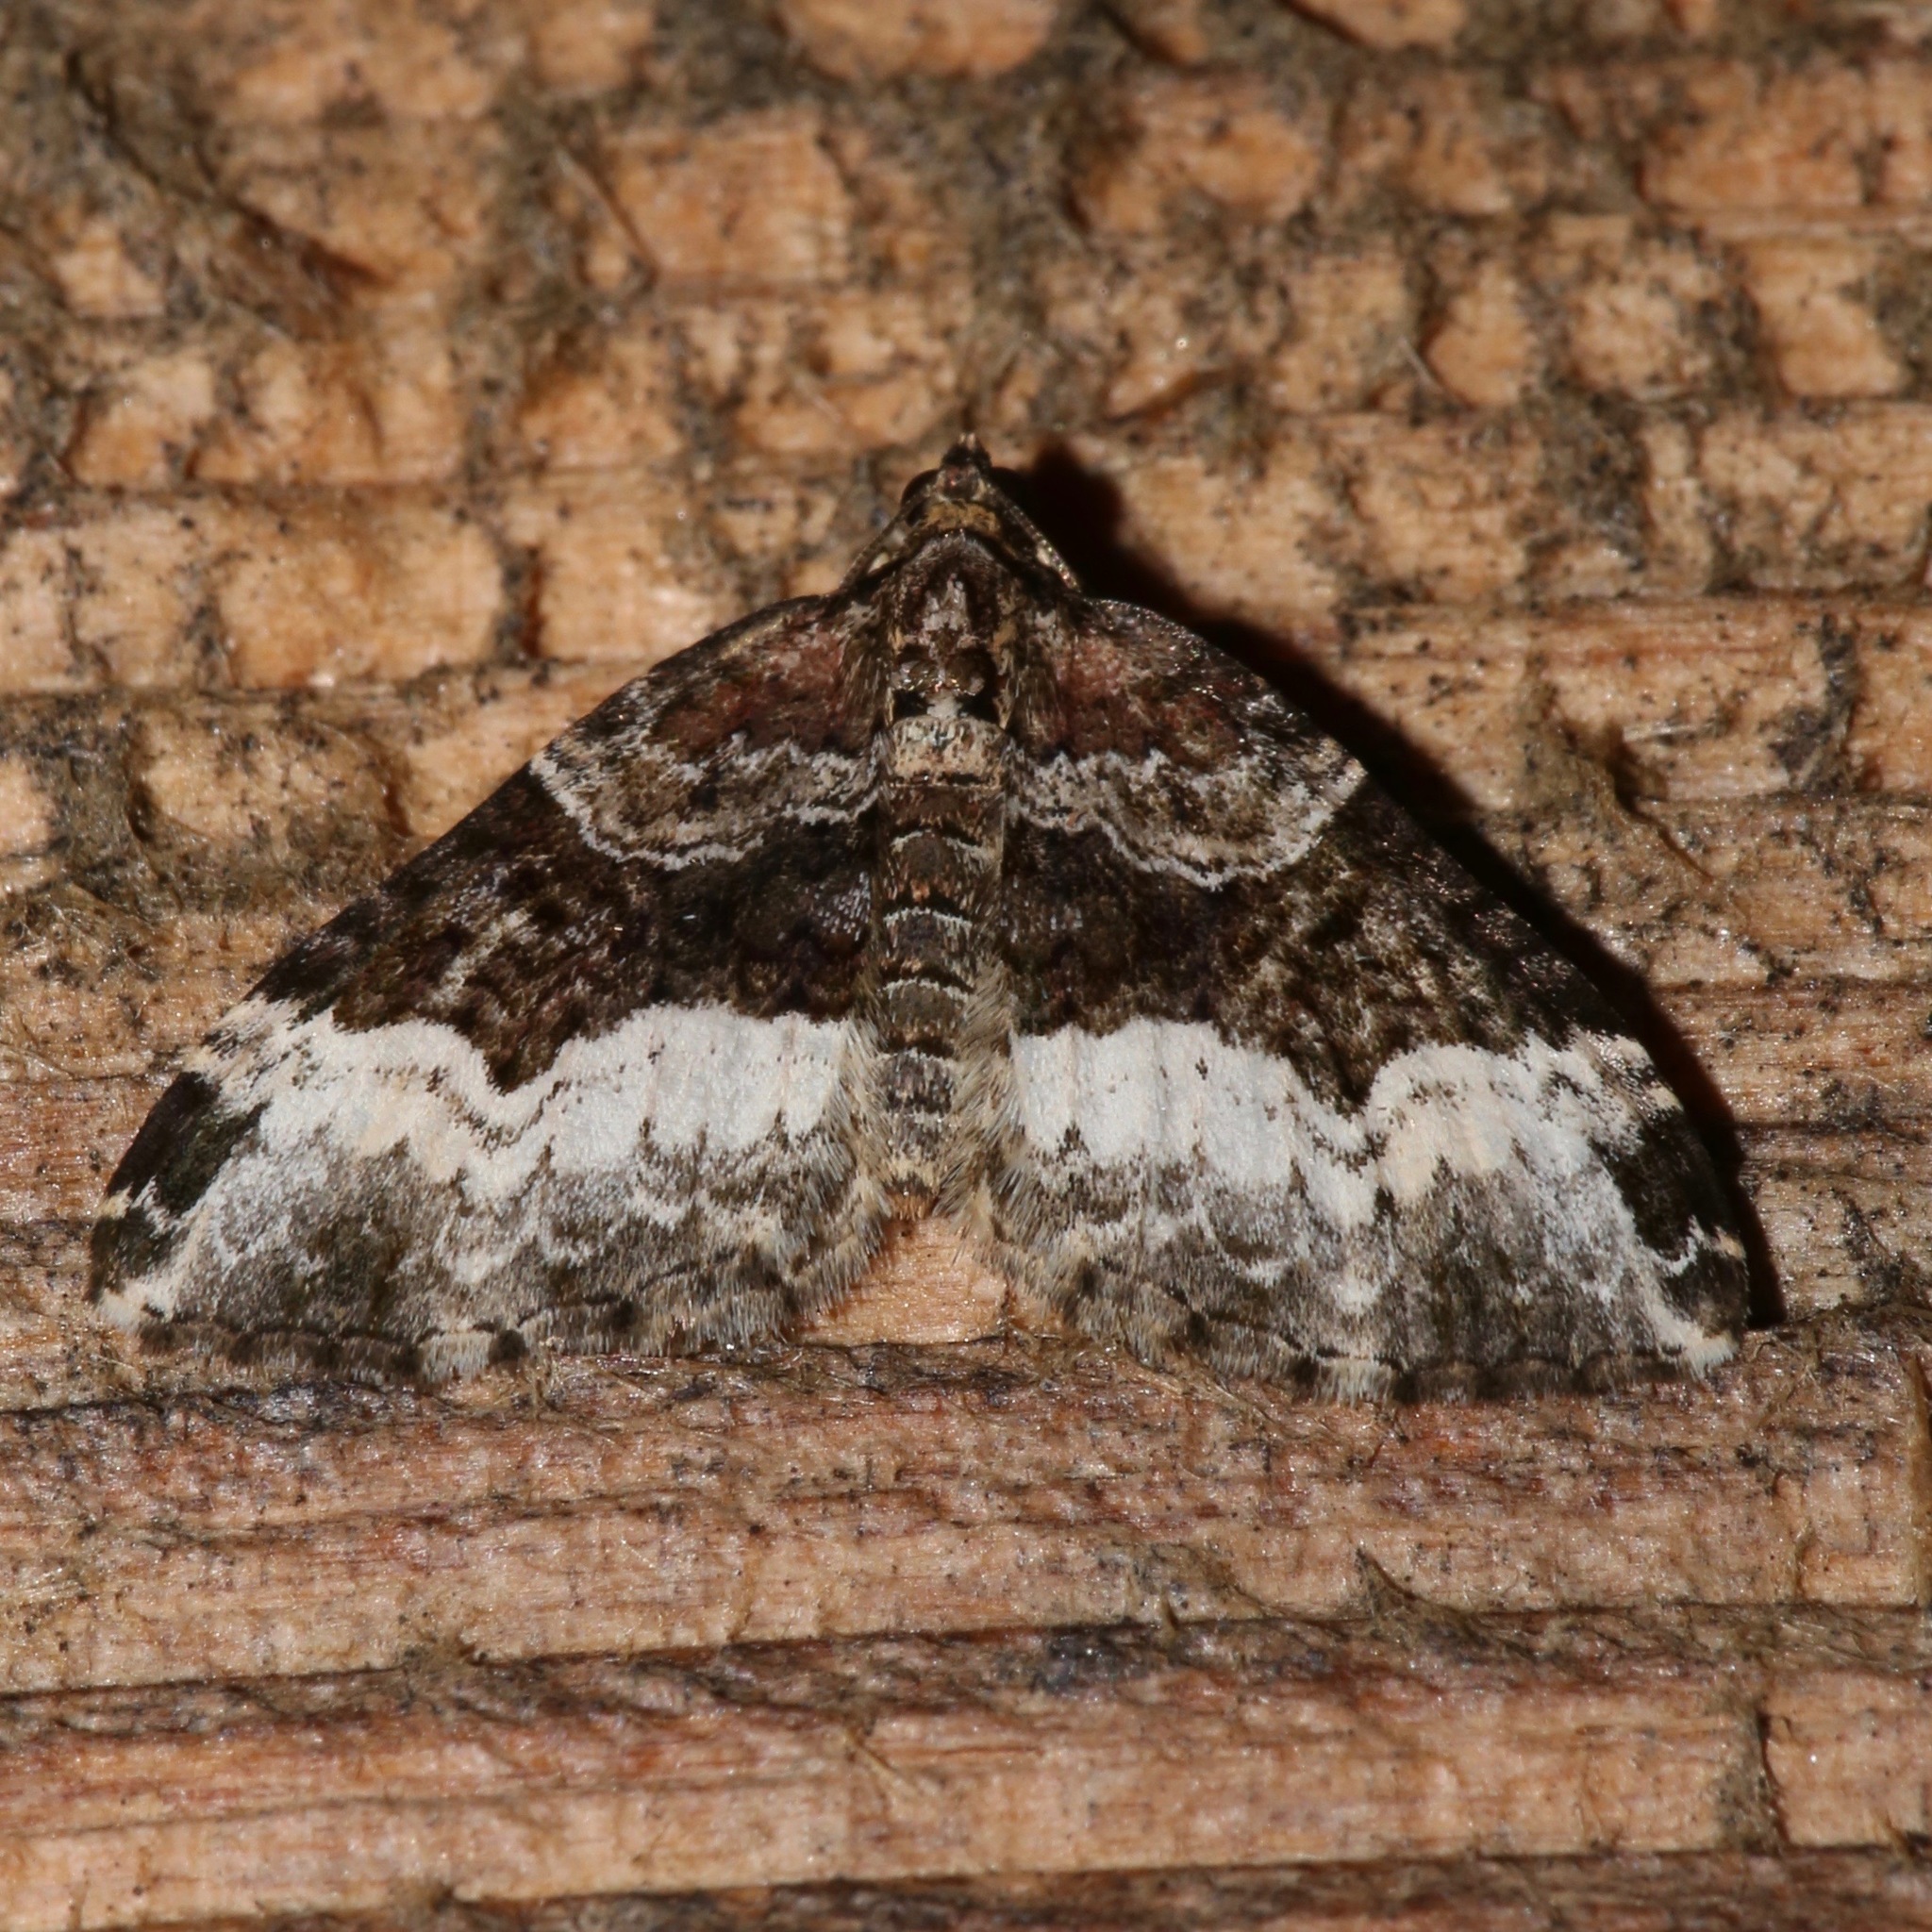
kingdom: Animalia
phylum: Arthropoda
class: Insecta
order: Lepidoptera
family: Geometridae
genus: Euphyia
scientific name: Euphyia intermediata
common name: Sharp-angled carpet
